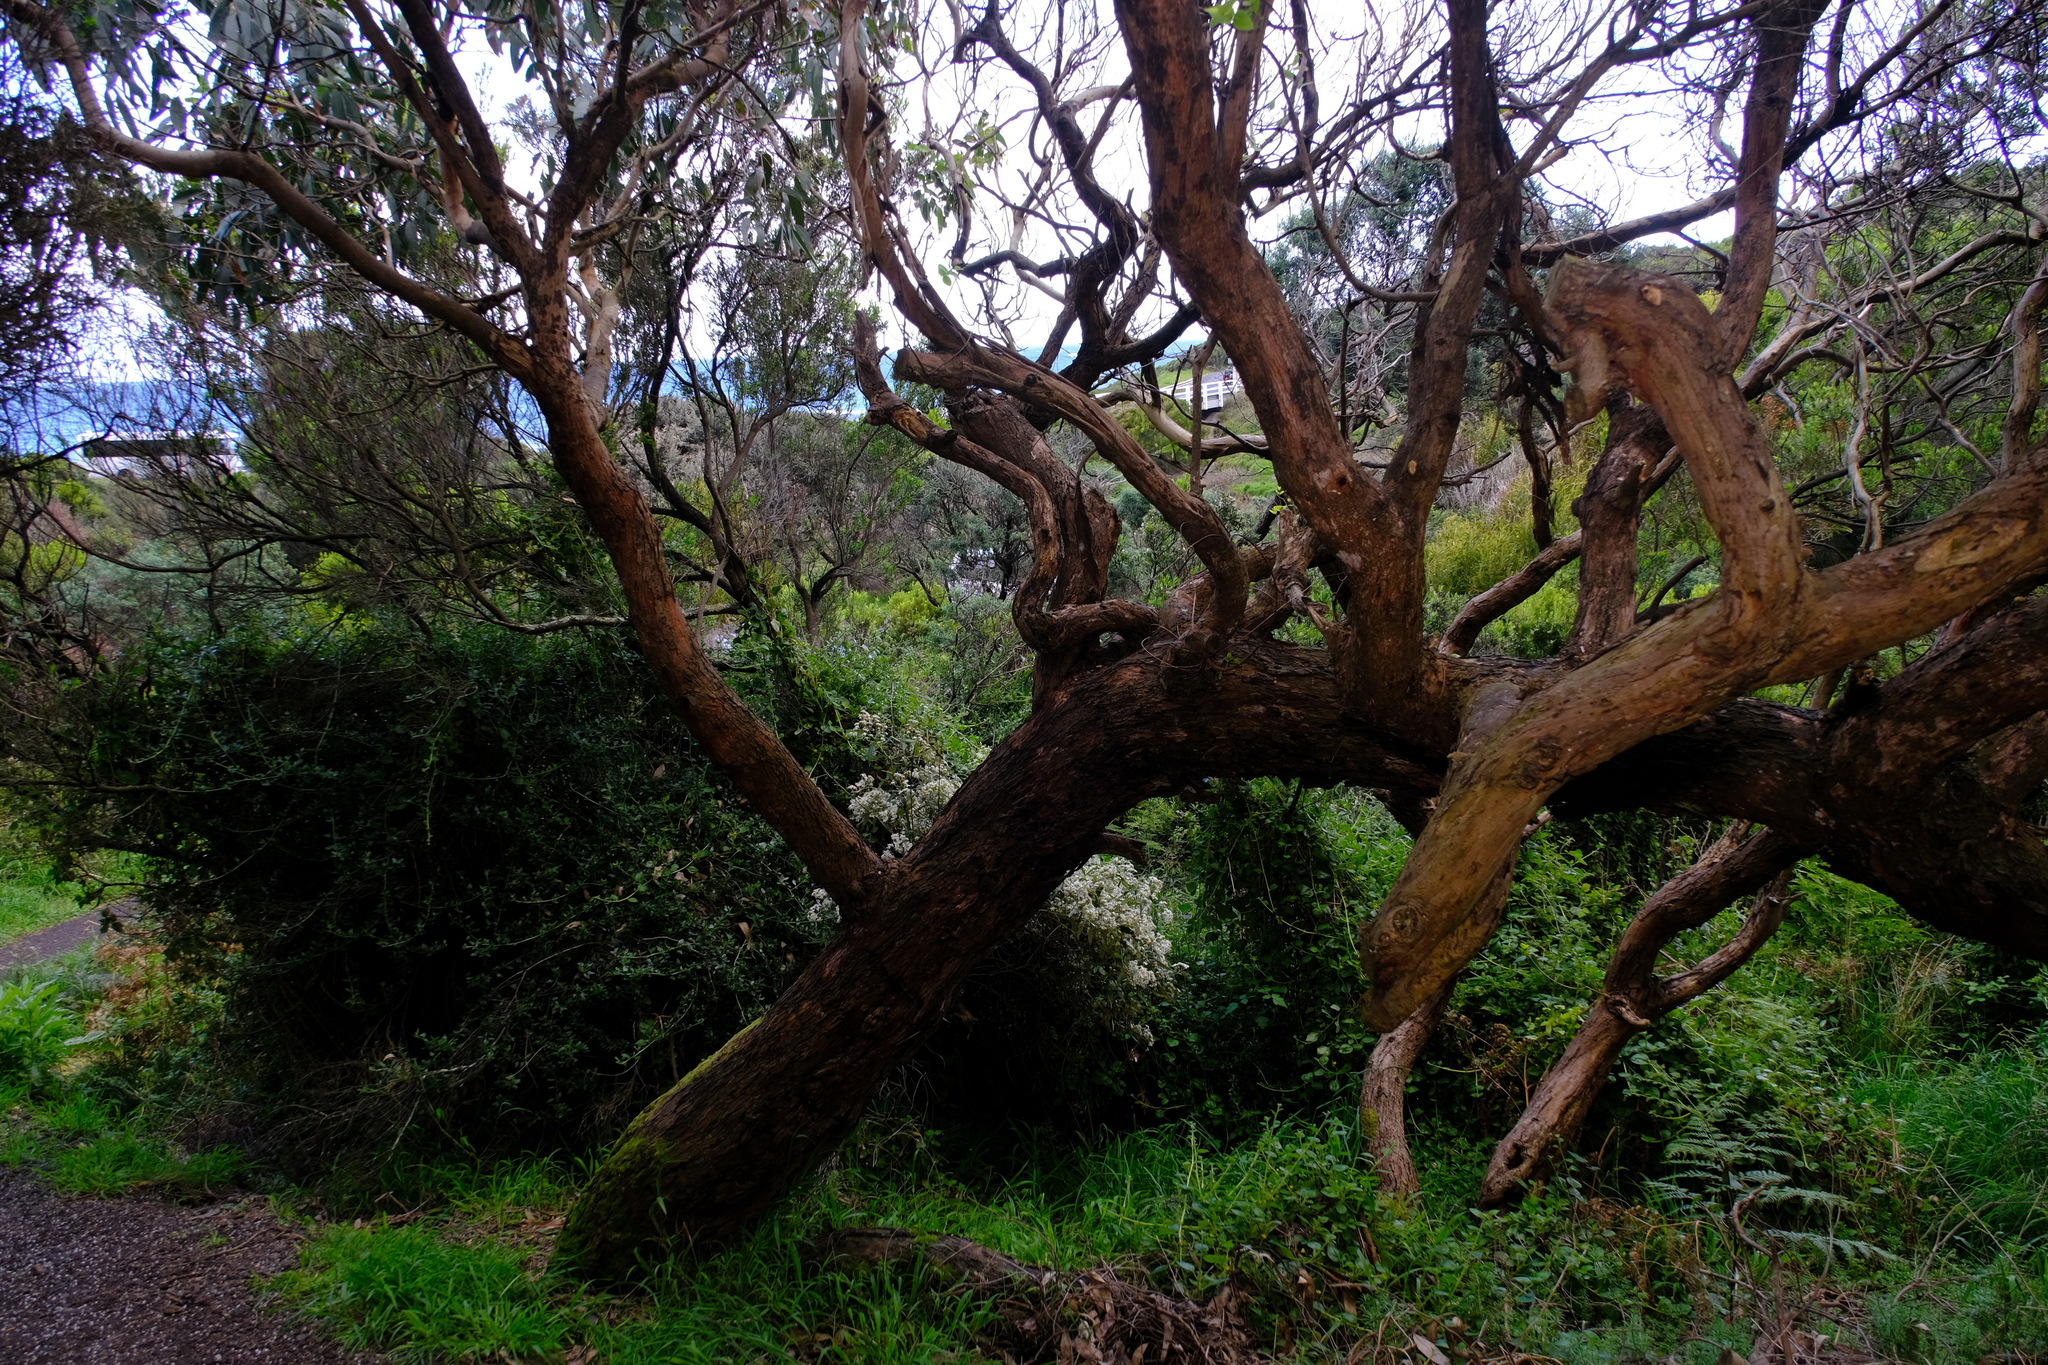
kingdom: Plantae
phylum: Tracheophyta
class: Magnoliopsida
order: Myrtales
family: Myrtaceae
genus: Eucalyptus
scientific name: Eucalyptus viminalis
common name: Manna gum
